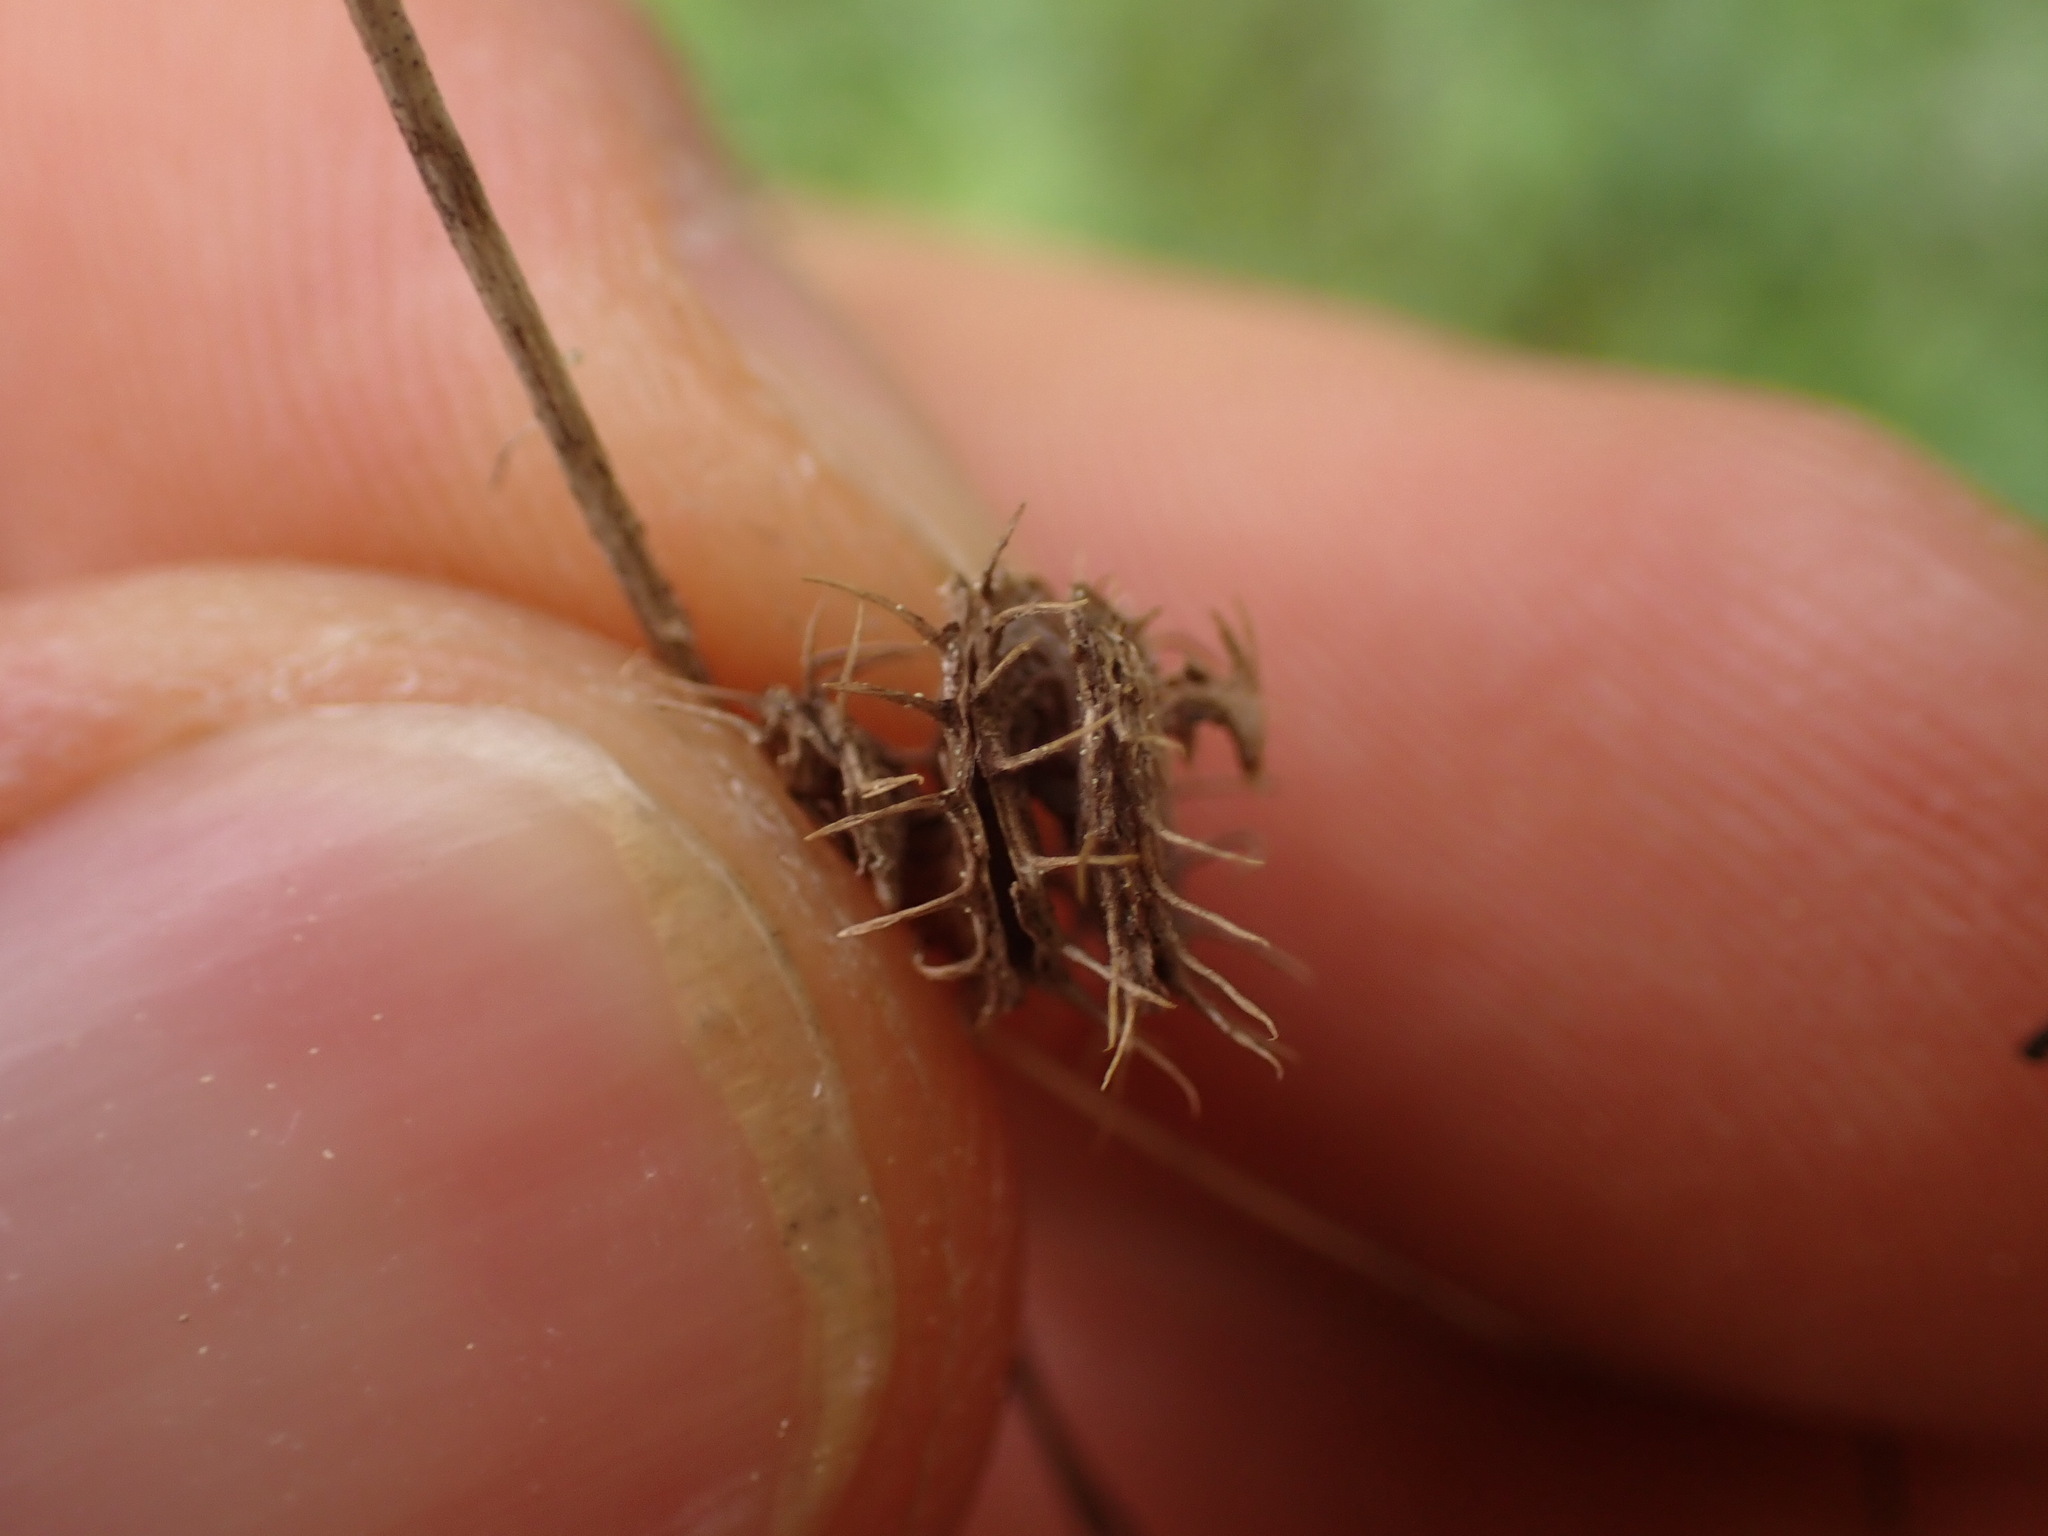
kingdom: Plantae
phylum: Tracheophyta
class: Magnoliopsida
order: Fabales
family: Fabaceae
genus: Medicago
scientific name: Medicago polymorpha
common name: Burclover
